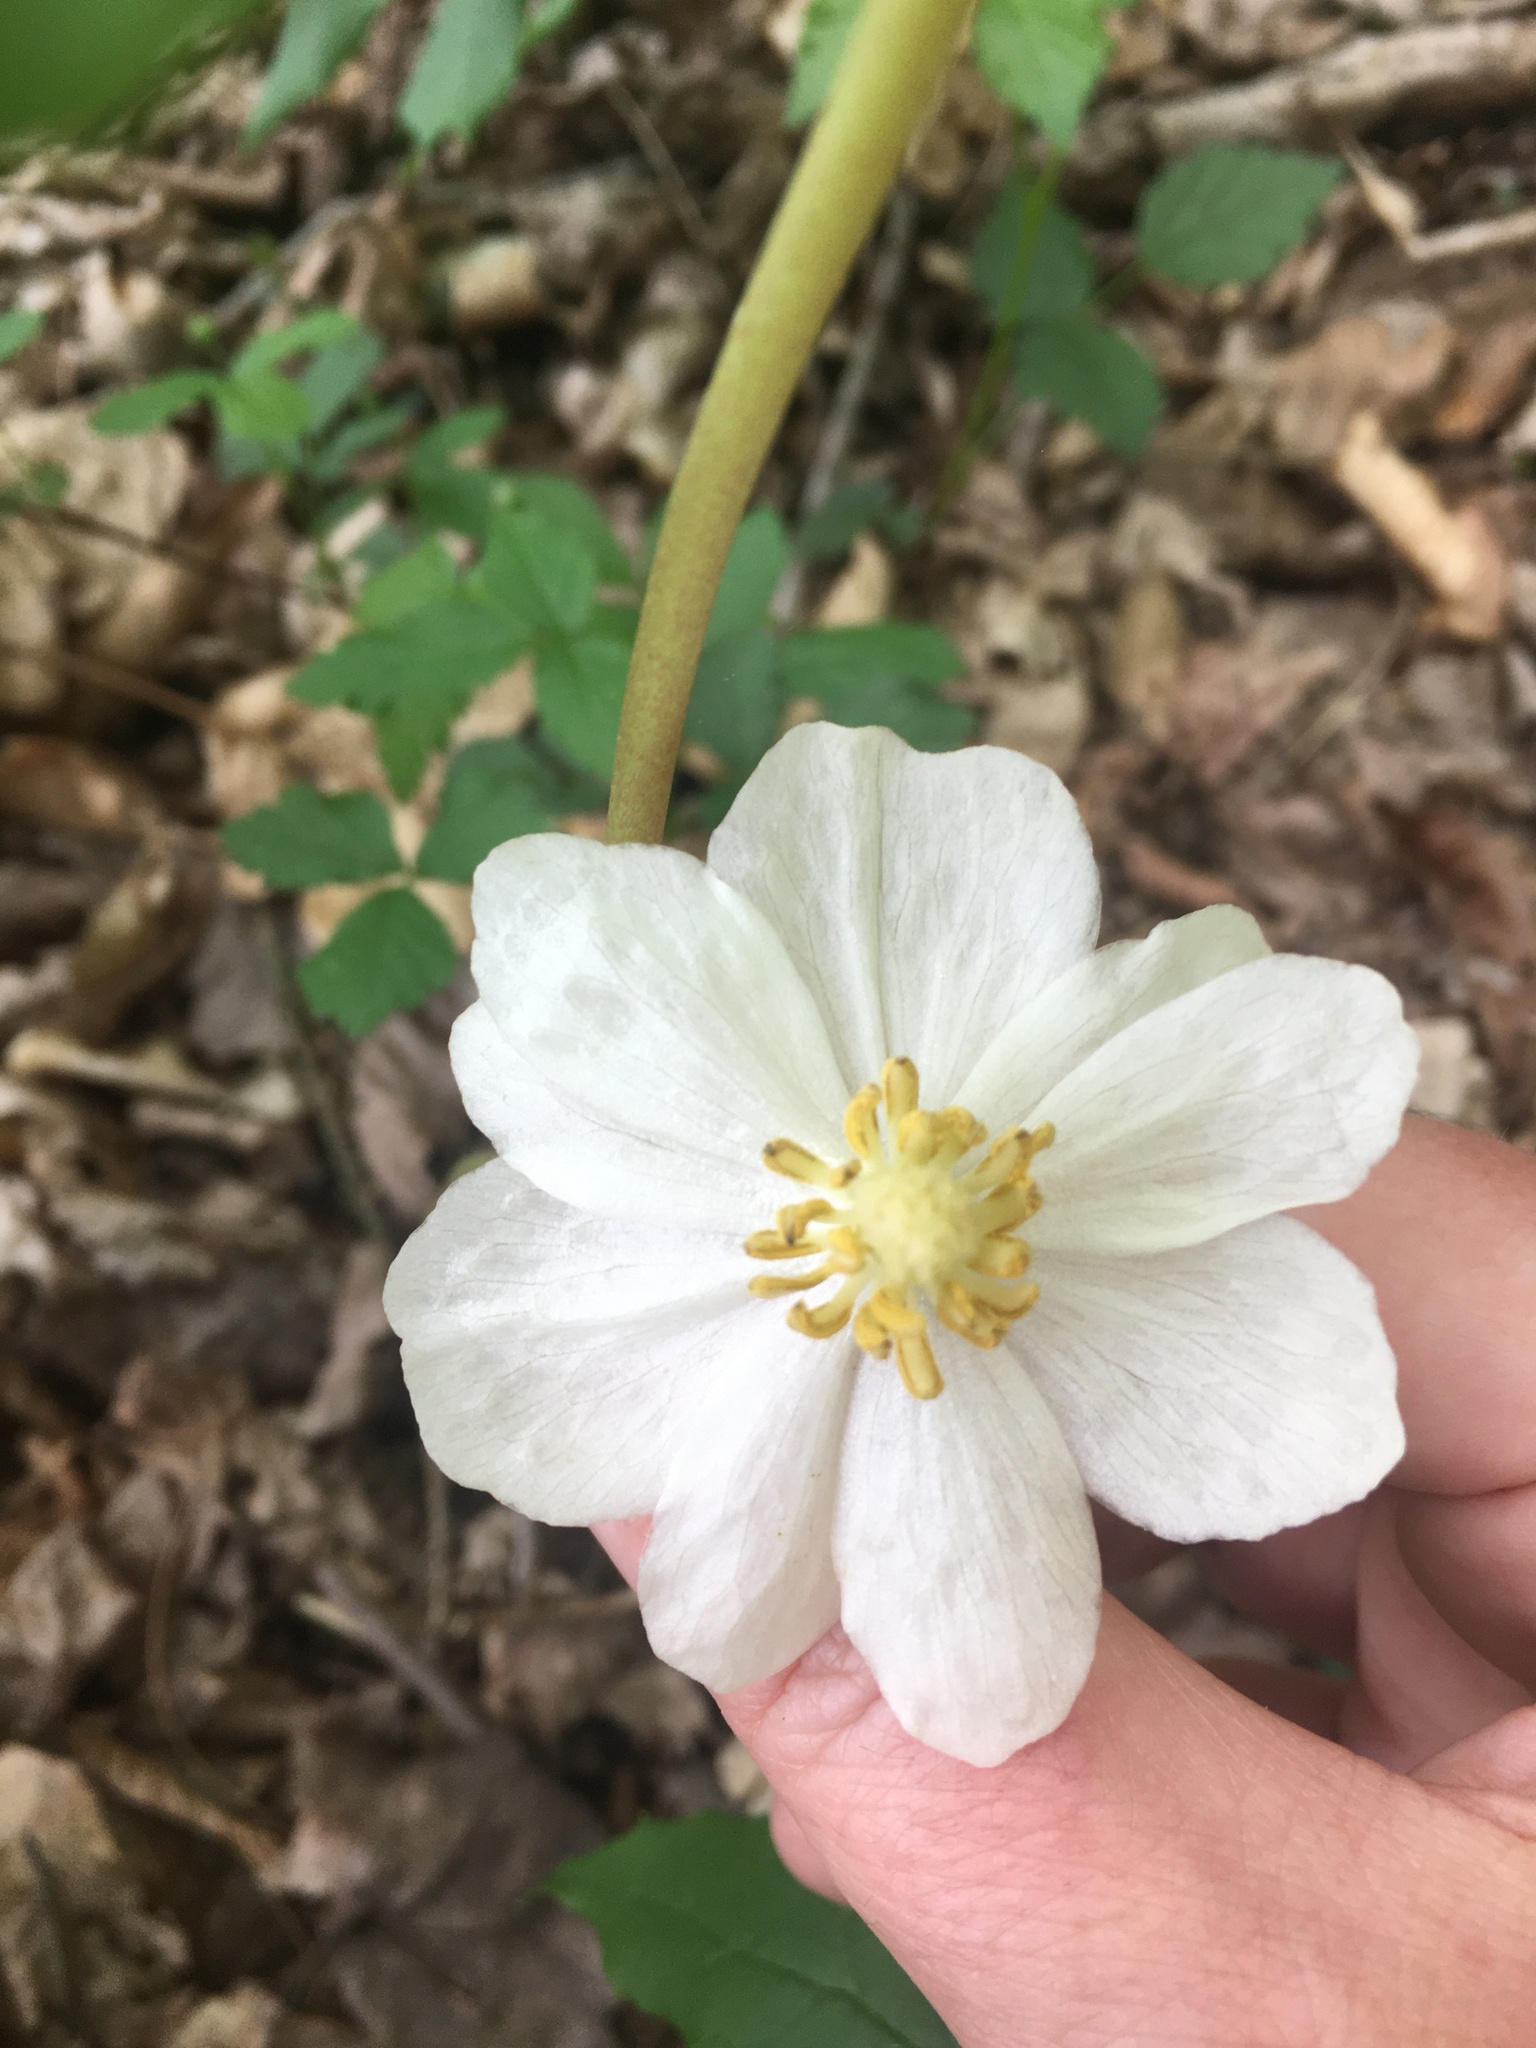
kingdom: Plantae
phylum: Tracheophyta
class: Magnoliopsida
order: Ranunculales
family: Berberidaceae
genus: Podophyllum
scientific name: Podophyllum peltatum
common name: Wild mandrake
